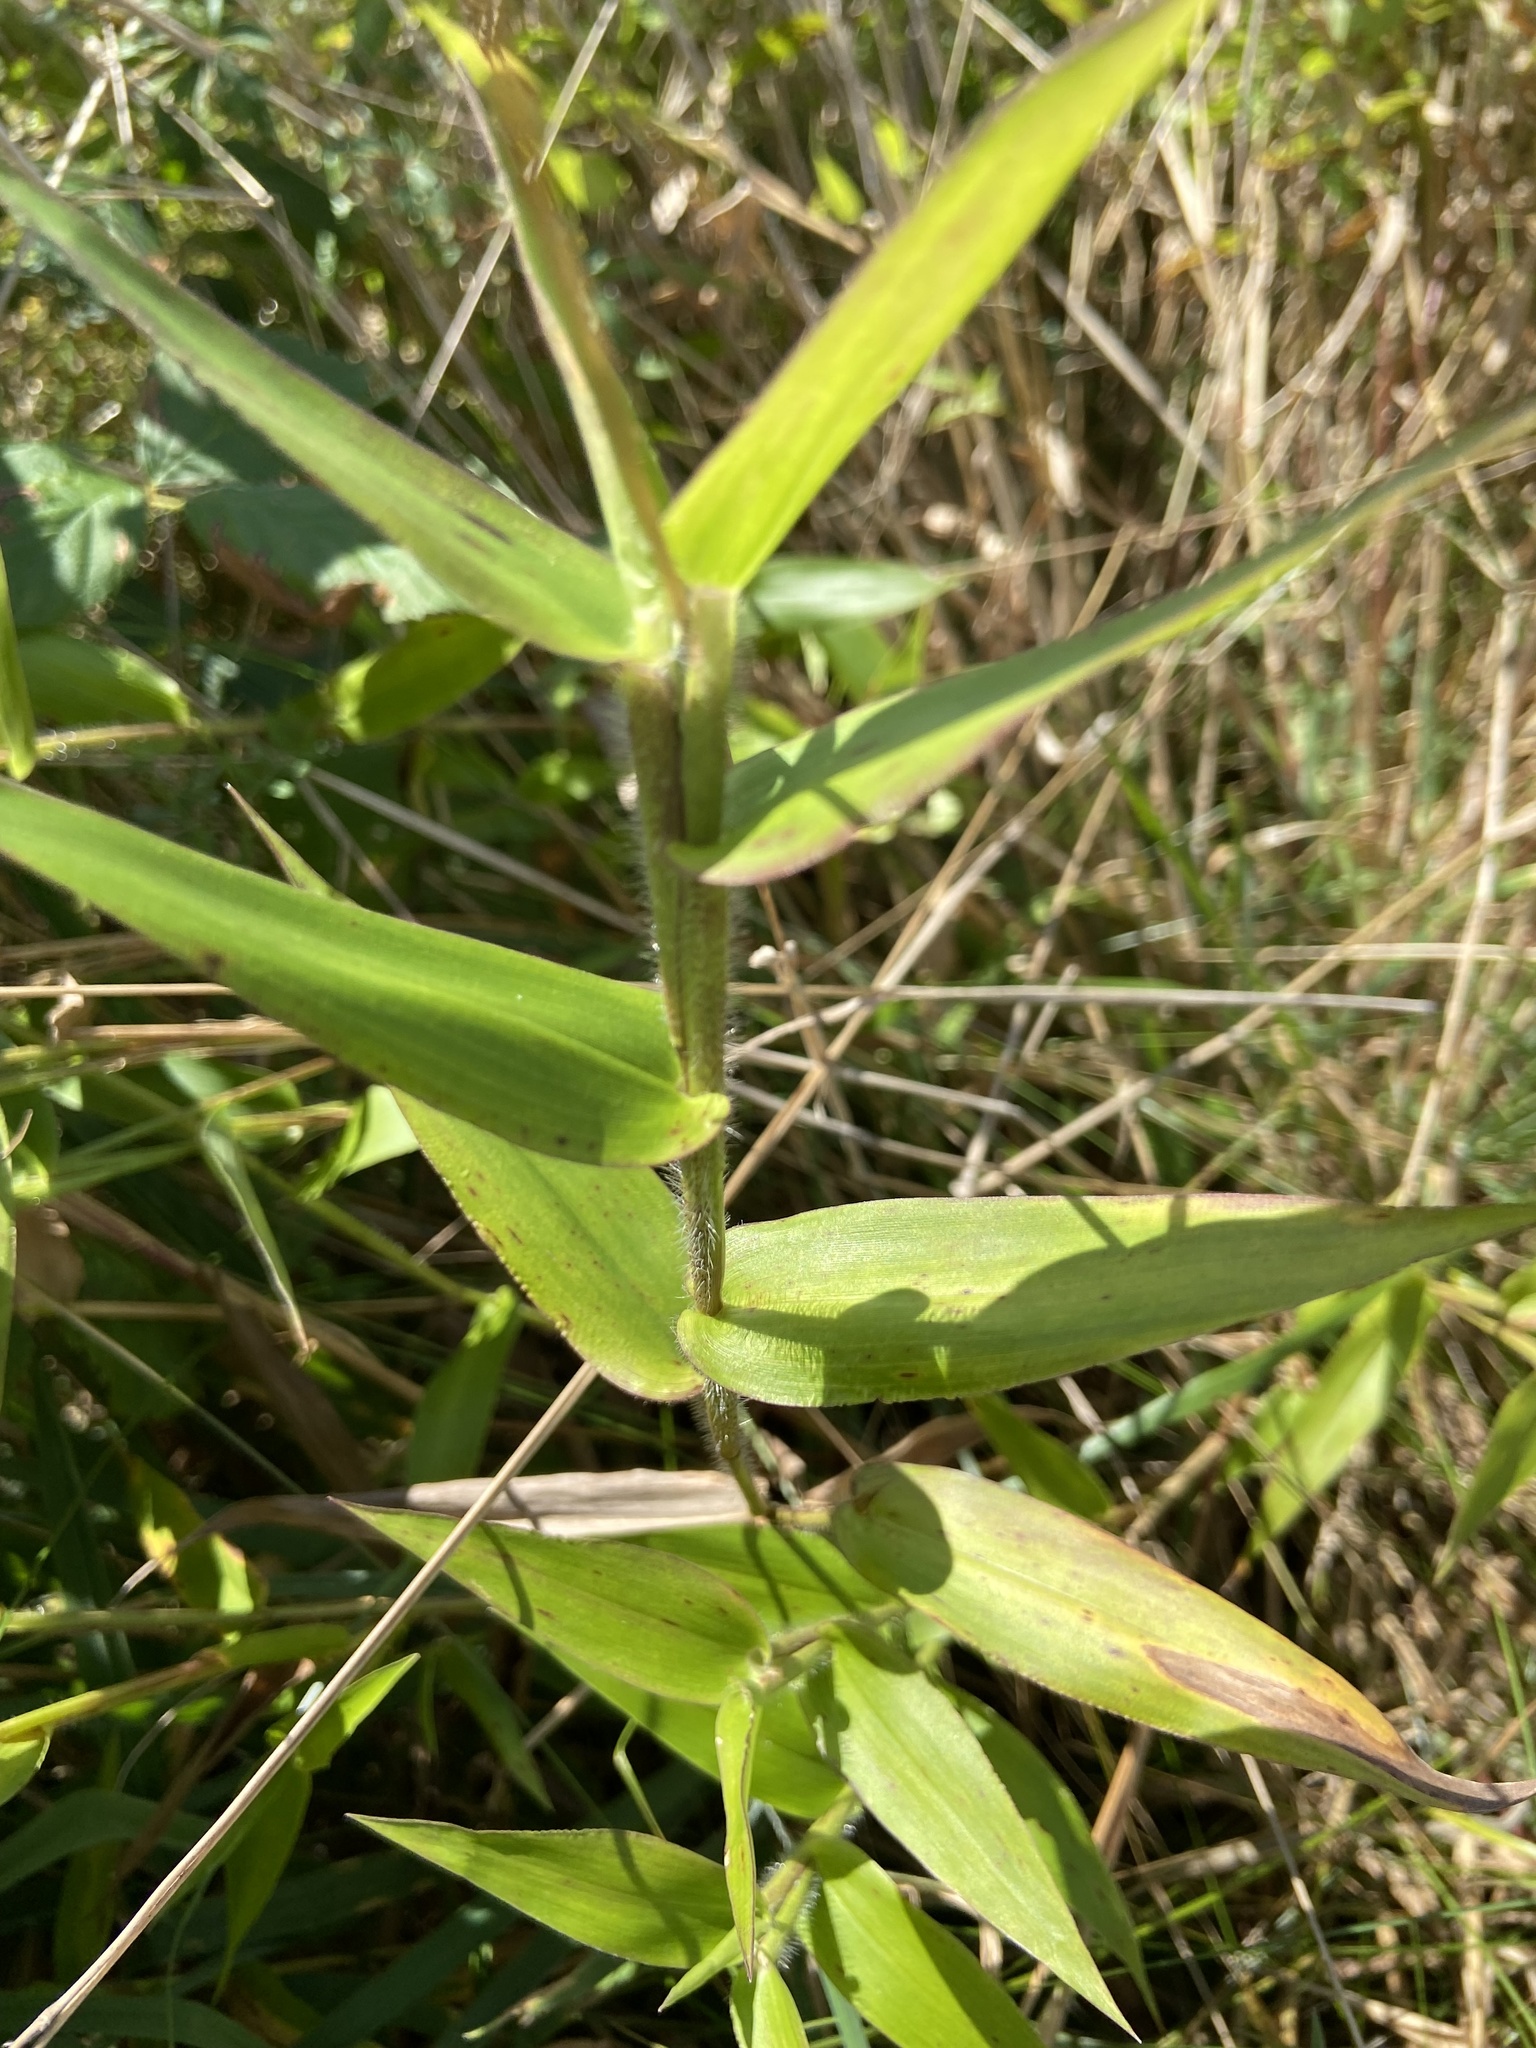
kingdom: Plantae
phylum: Tracheophyta
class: Liliopsida
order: Poales
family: Poaceae
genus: Dichanthelium
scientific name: Dichanthelium clandestinum
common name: Deer-tongue grass
